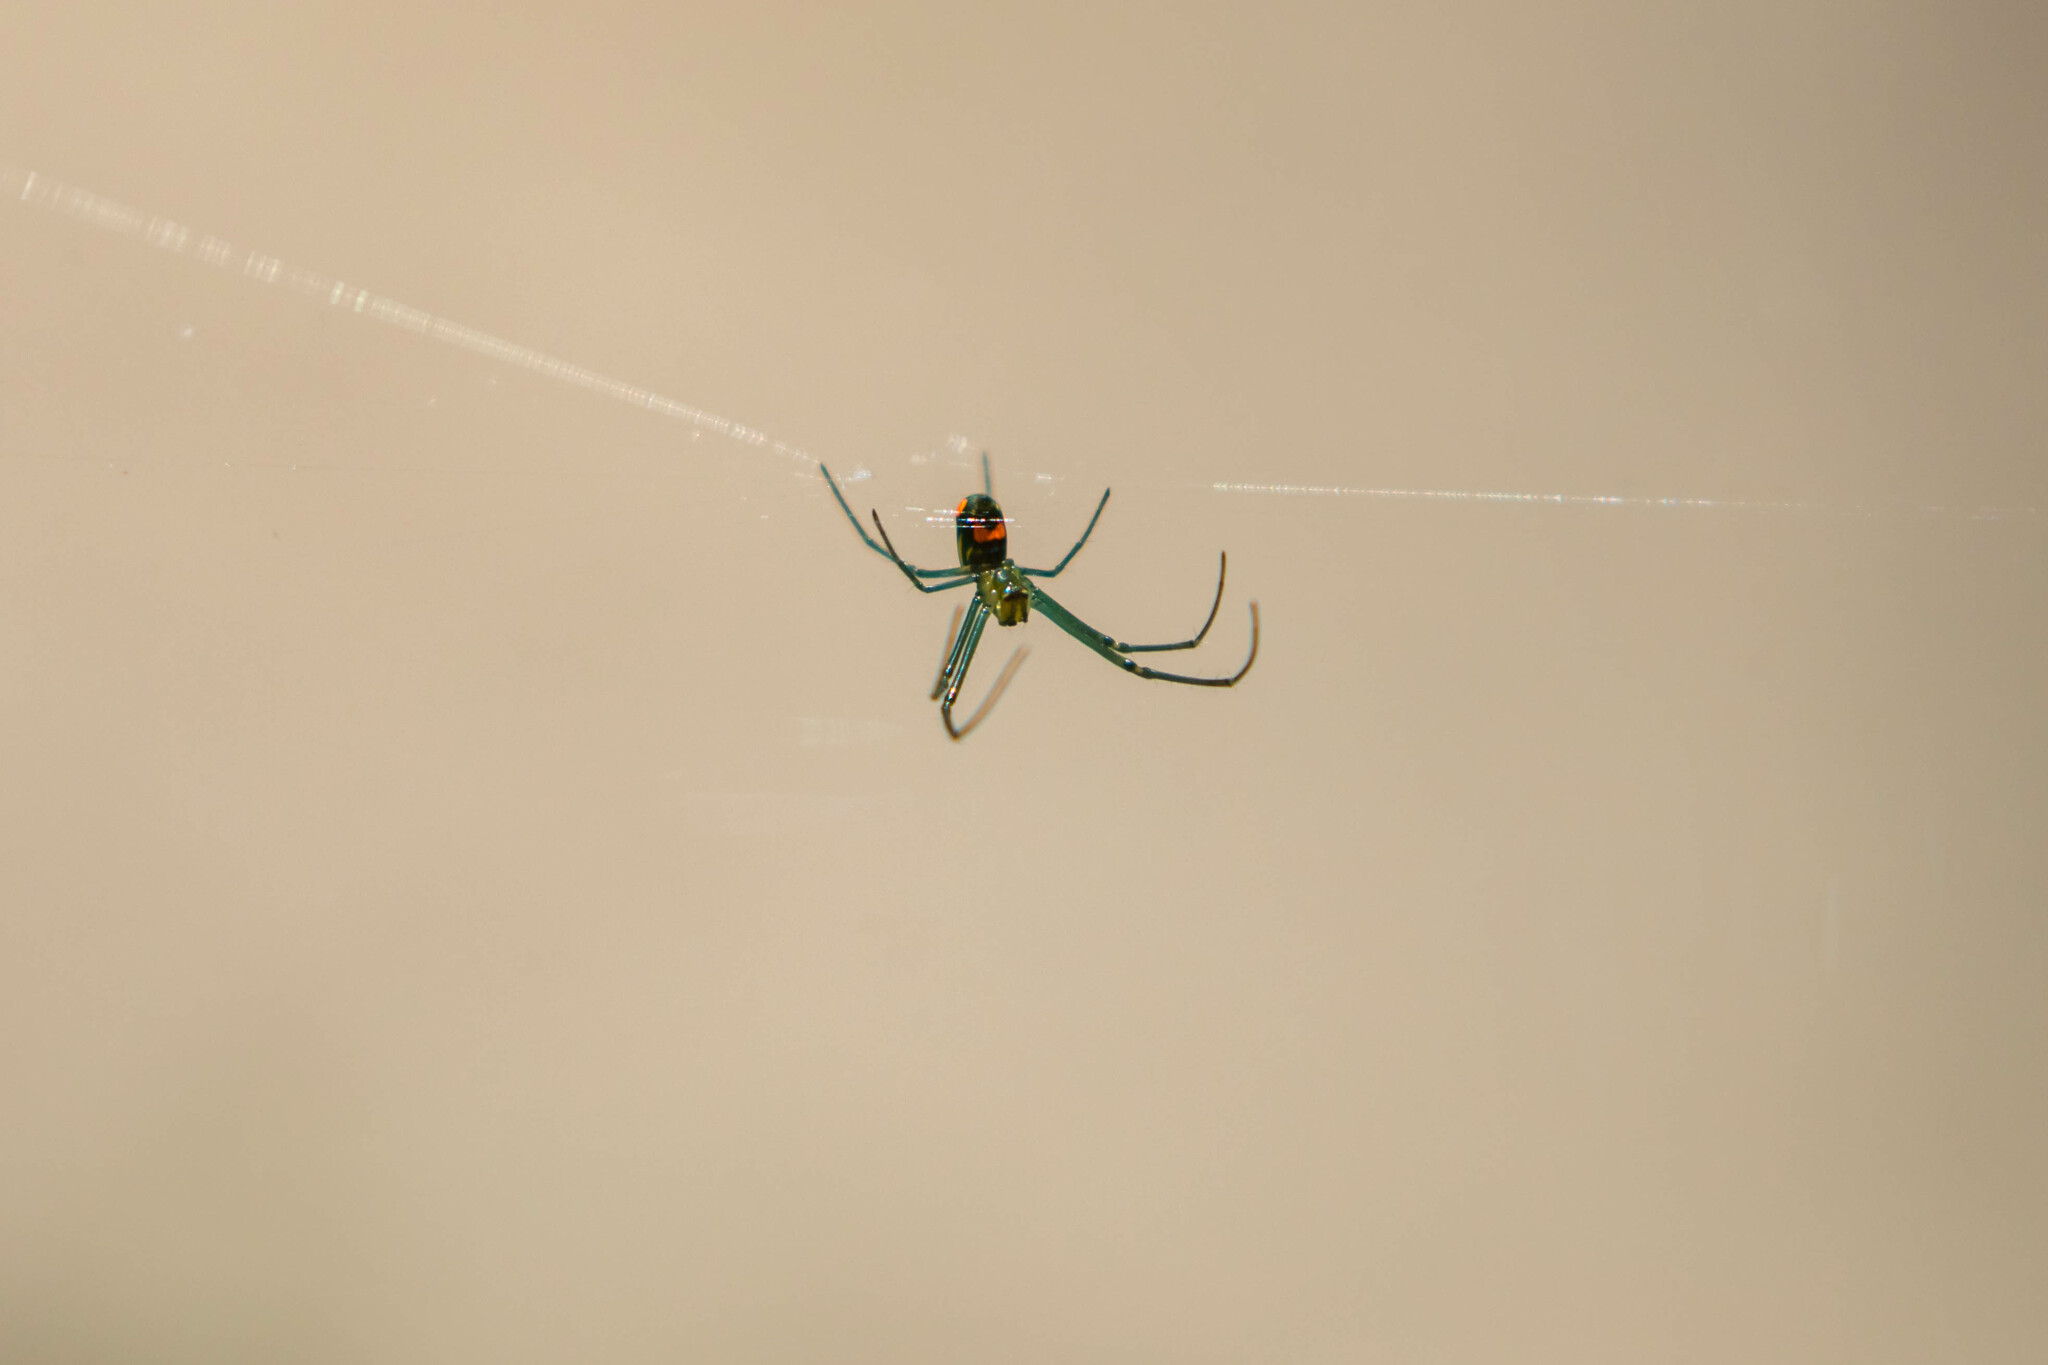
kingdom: Animalia
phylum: Arthropoda
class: Arachnida
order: Araneae
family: Tetragnathidae
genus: Leucauge
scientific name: Leucauge argyrobapta
